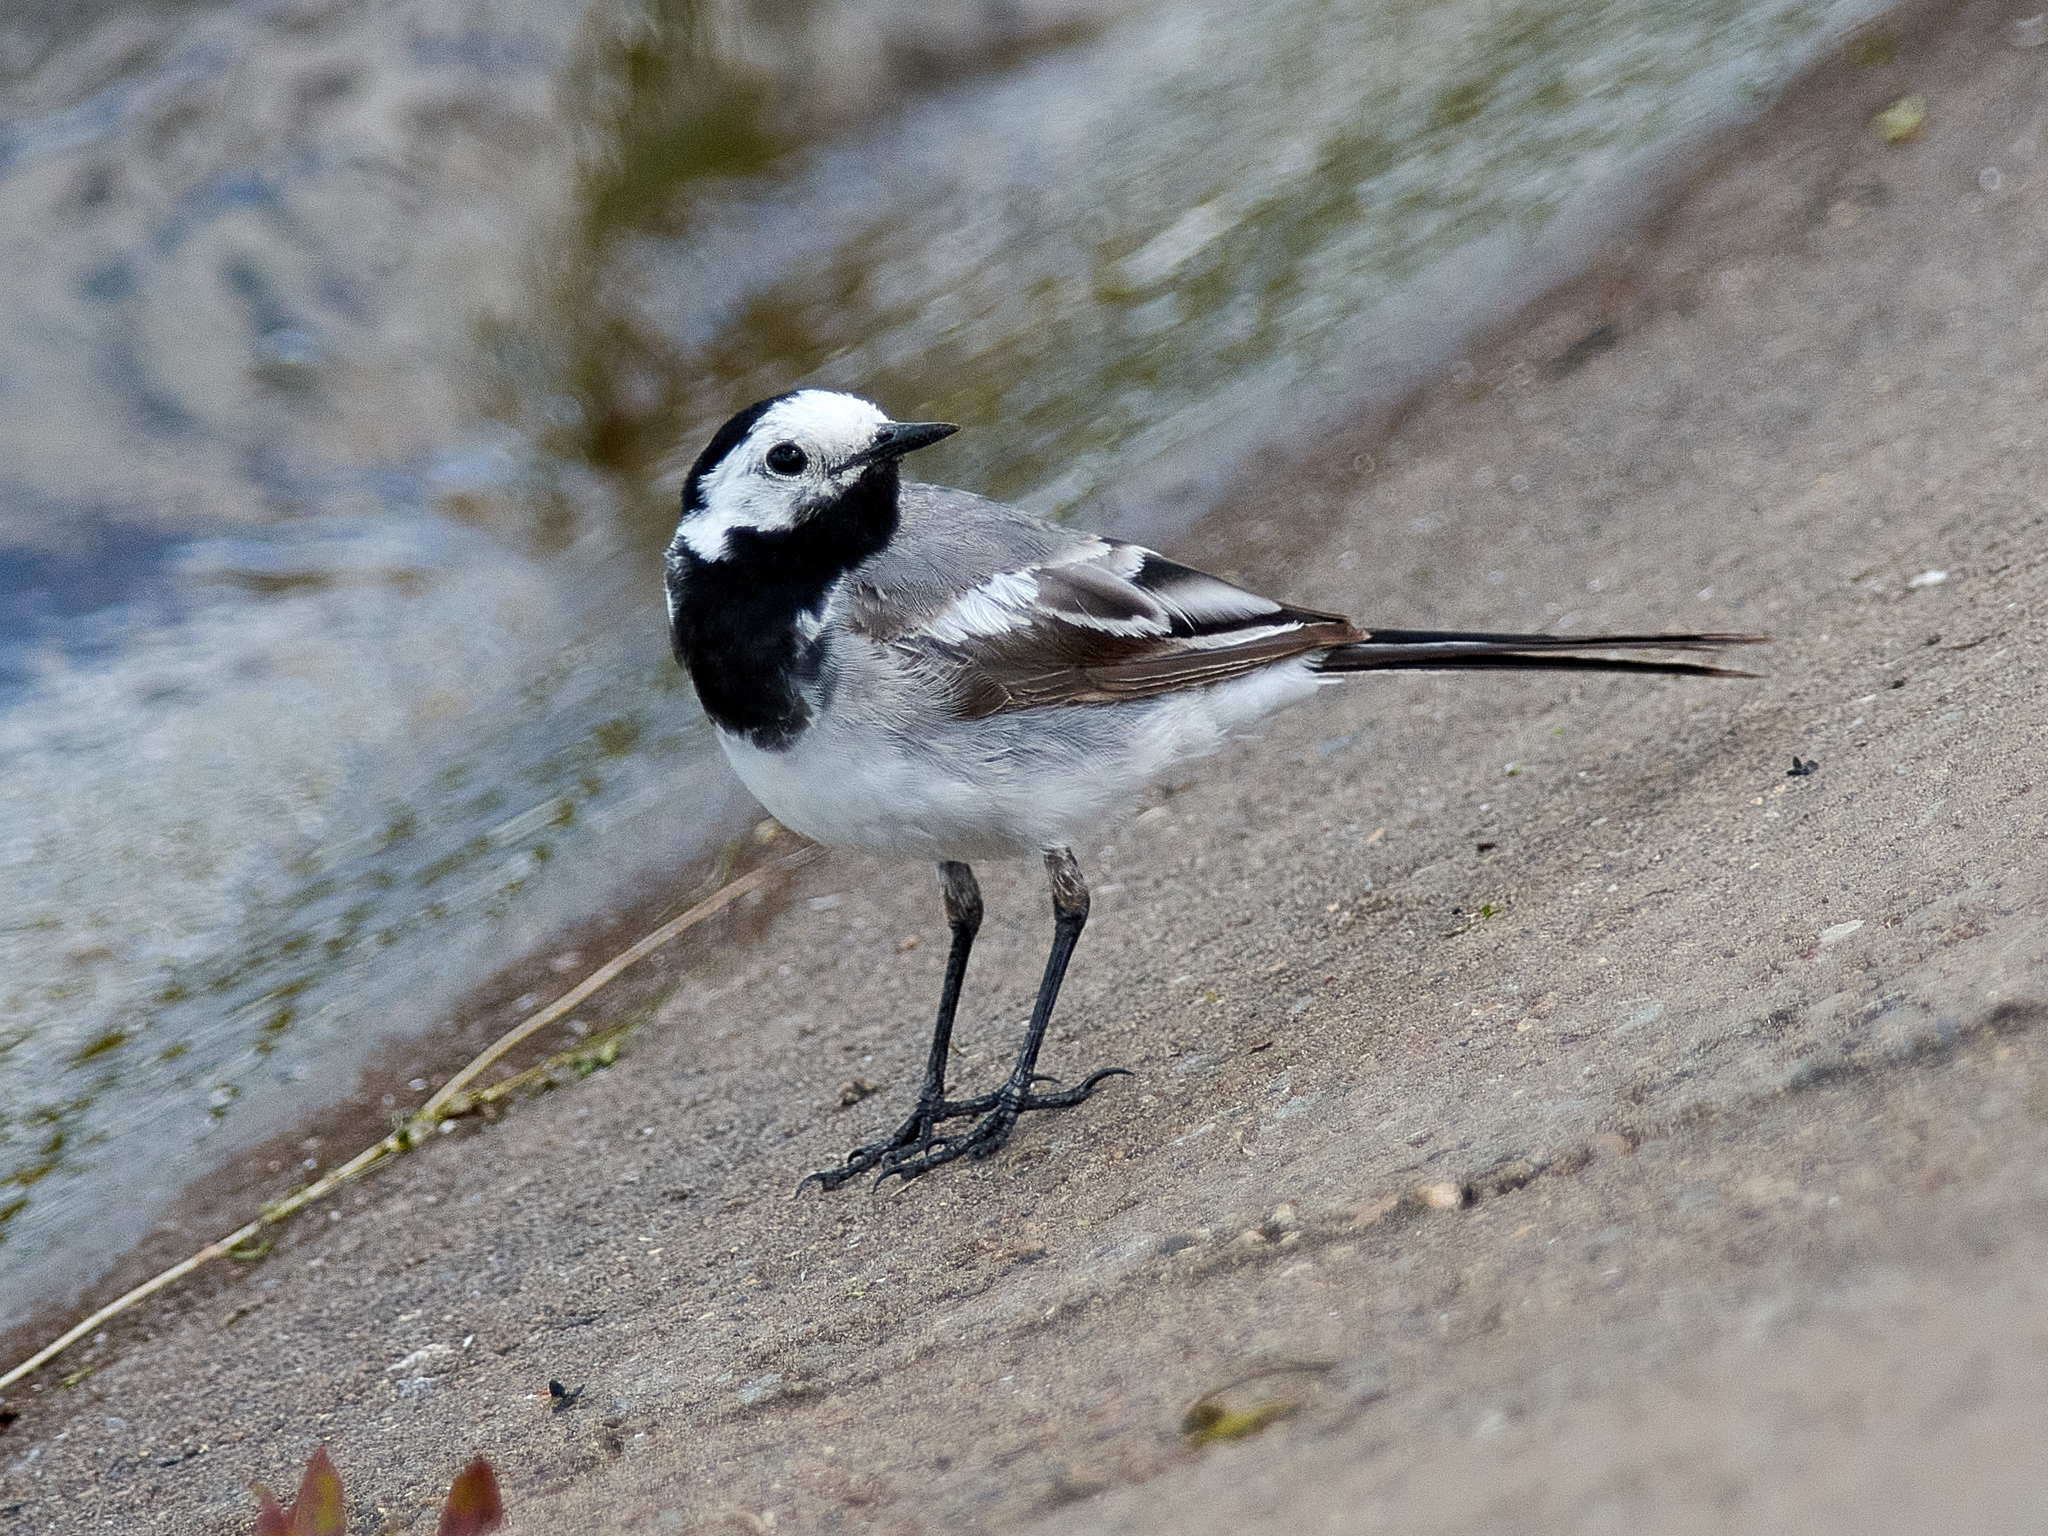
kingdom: Animalia
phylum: Chordata
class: Aves
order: Passeriformes
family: Motacillidae
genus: Motacilla
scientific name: Motacilla alba
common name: White wagtail
